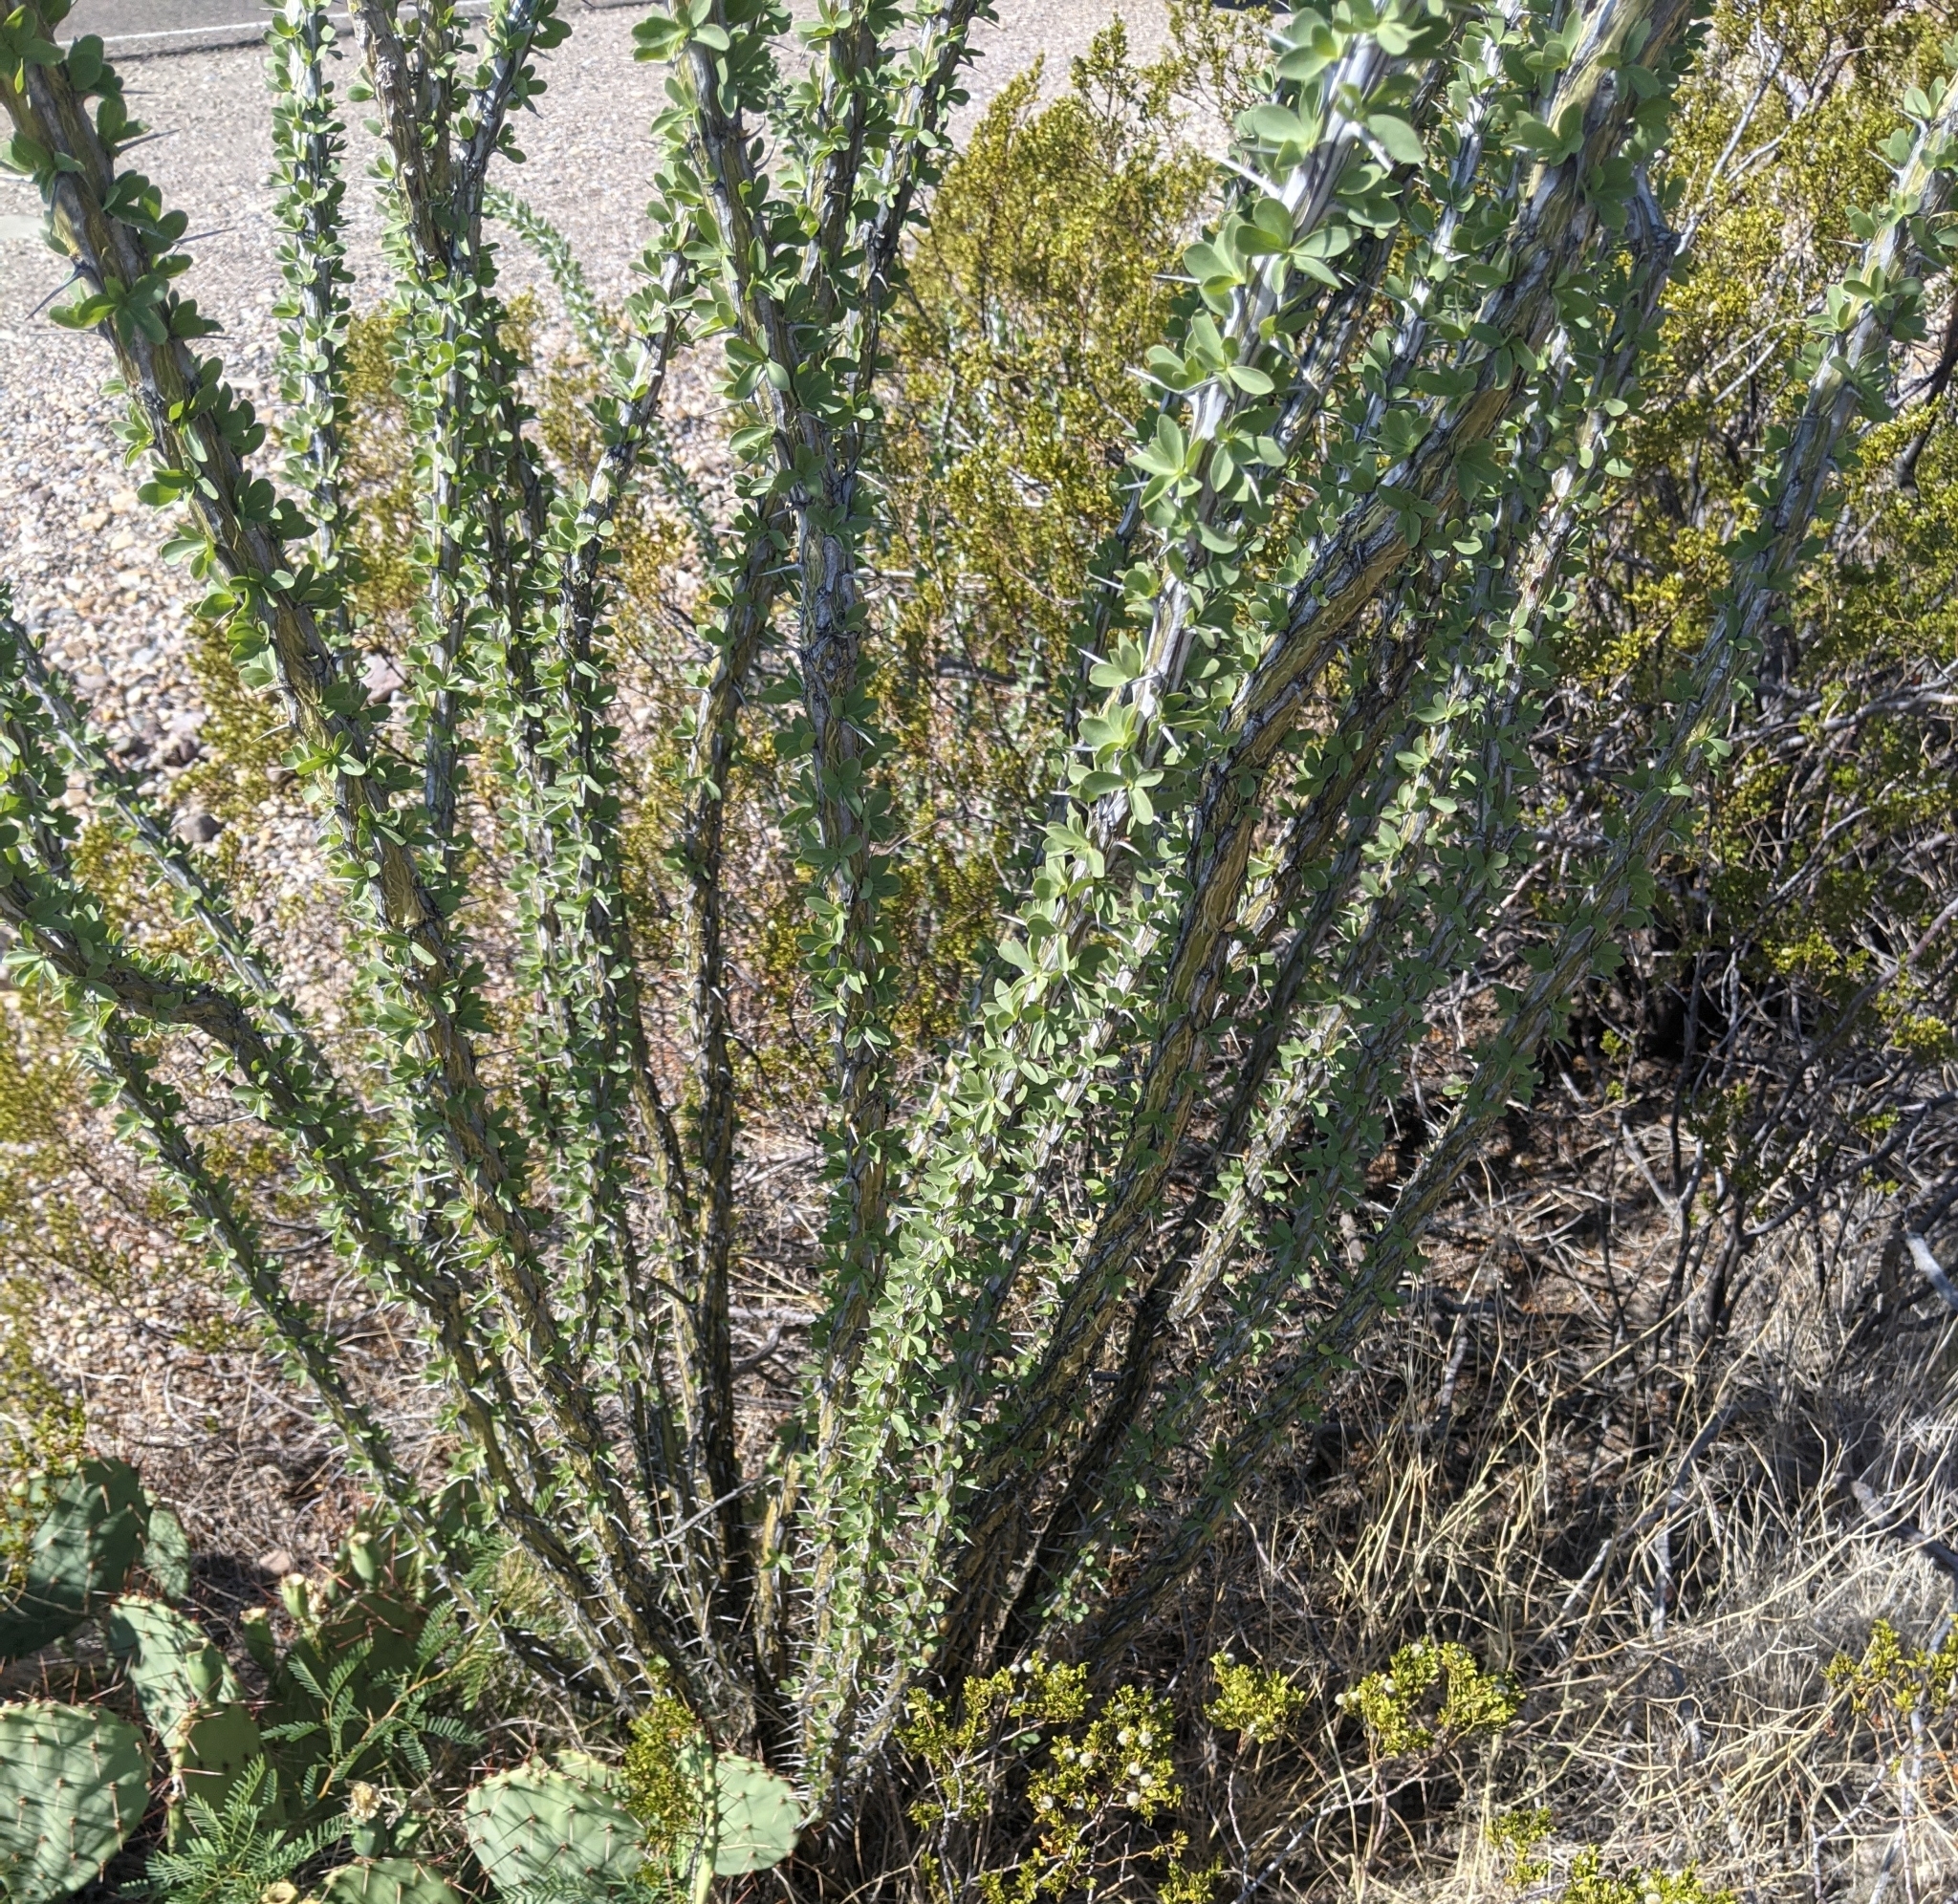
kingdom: Plantae
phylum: Tracheophyta
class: Magnoliopsida
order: Ericales
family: Fouquieriaceae
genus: Fouquieria
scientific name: Fouquieria splendens
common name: Vine-cactus
